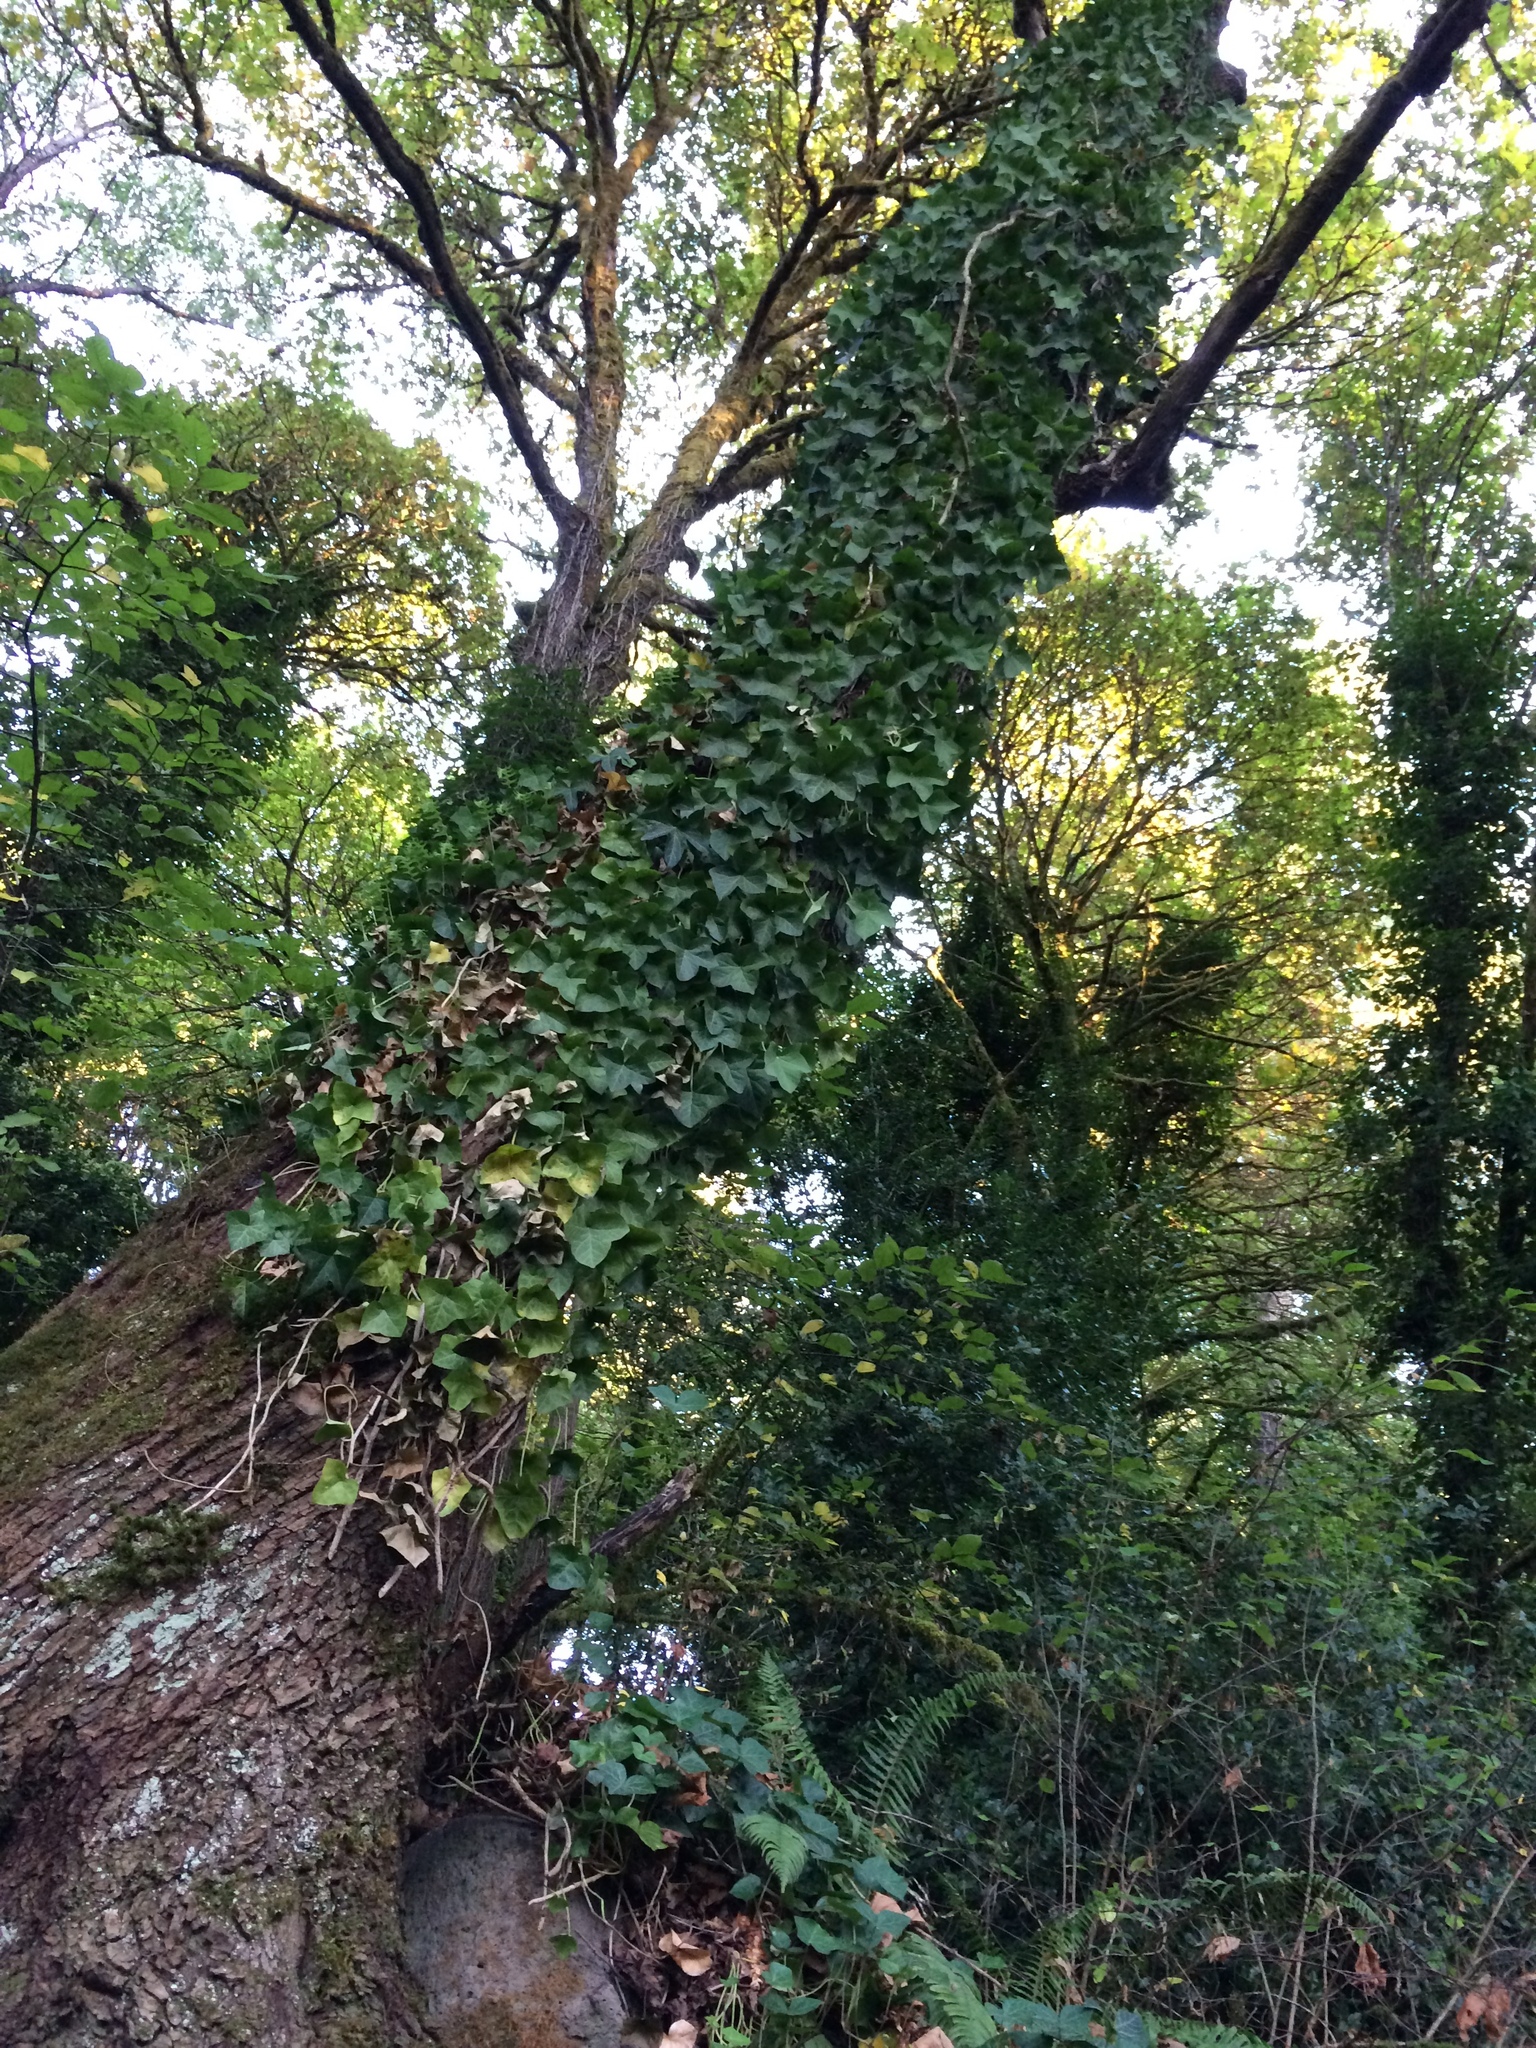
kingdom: Plantae
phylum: Tracheophyta
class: Magnoliopsida
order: Apiales
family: Araliaceae
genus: Hedera
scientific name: Hedera helix
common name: Ivy
